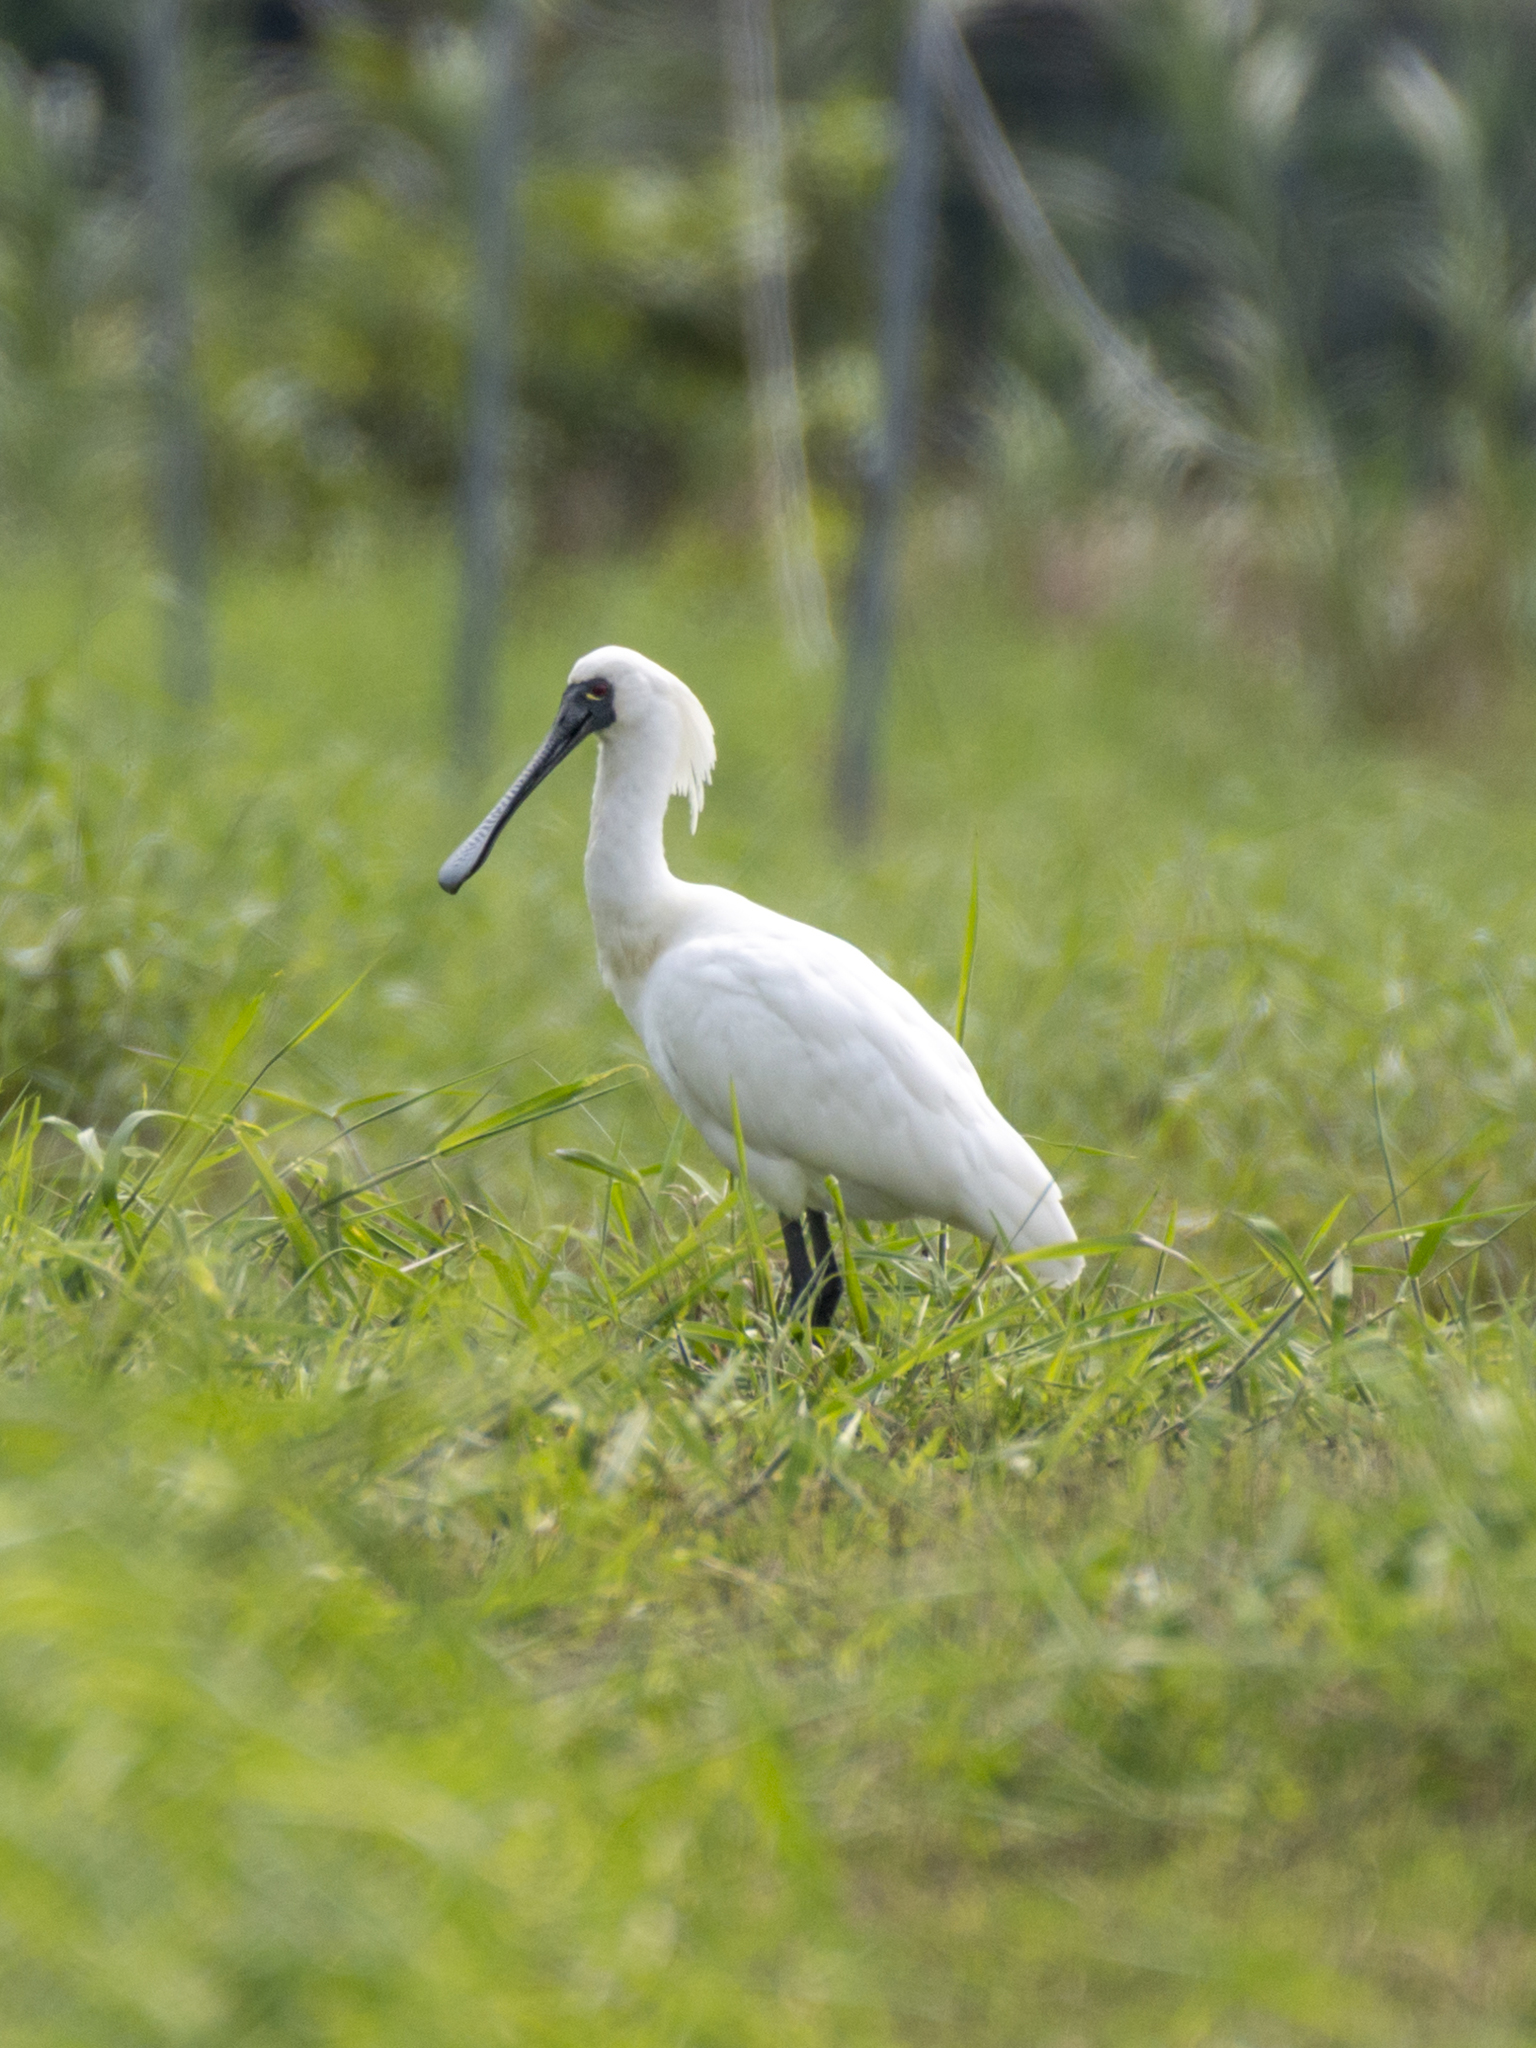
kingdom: Animalia
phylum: Chordata
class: Aves
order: Pelecaniformes
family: Threskiornithidae
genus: Platalea
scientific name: Platalea minor
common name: Black-faced spoonbill
